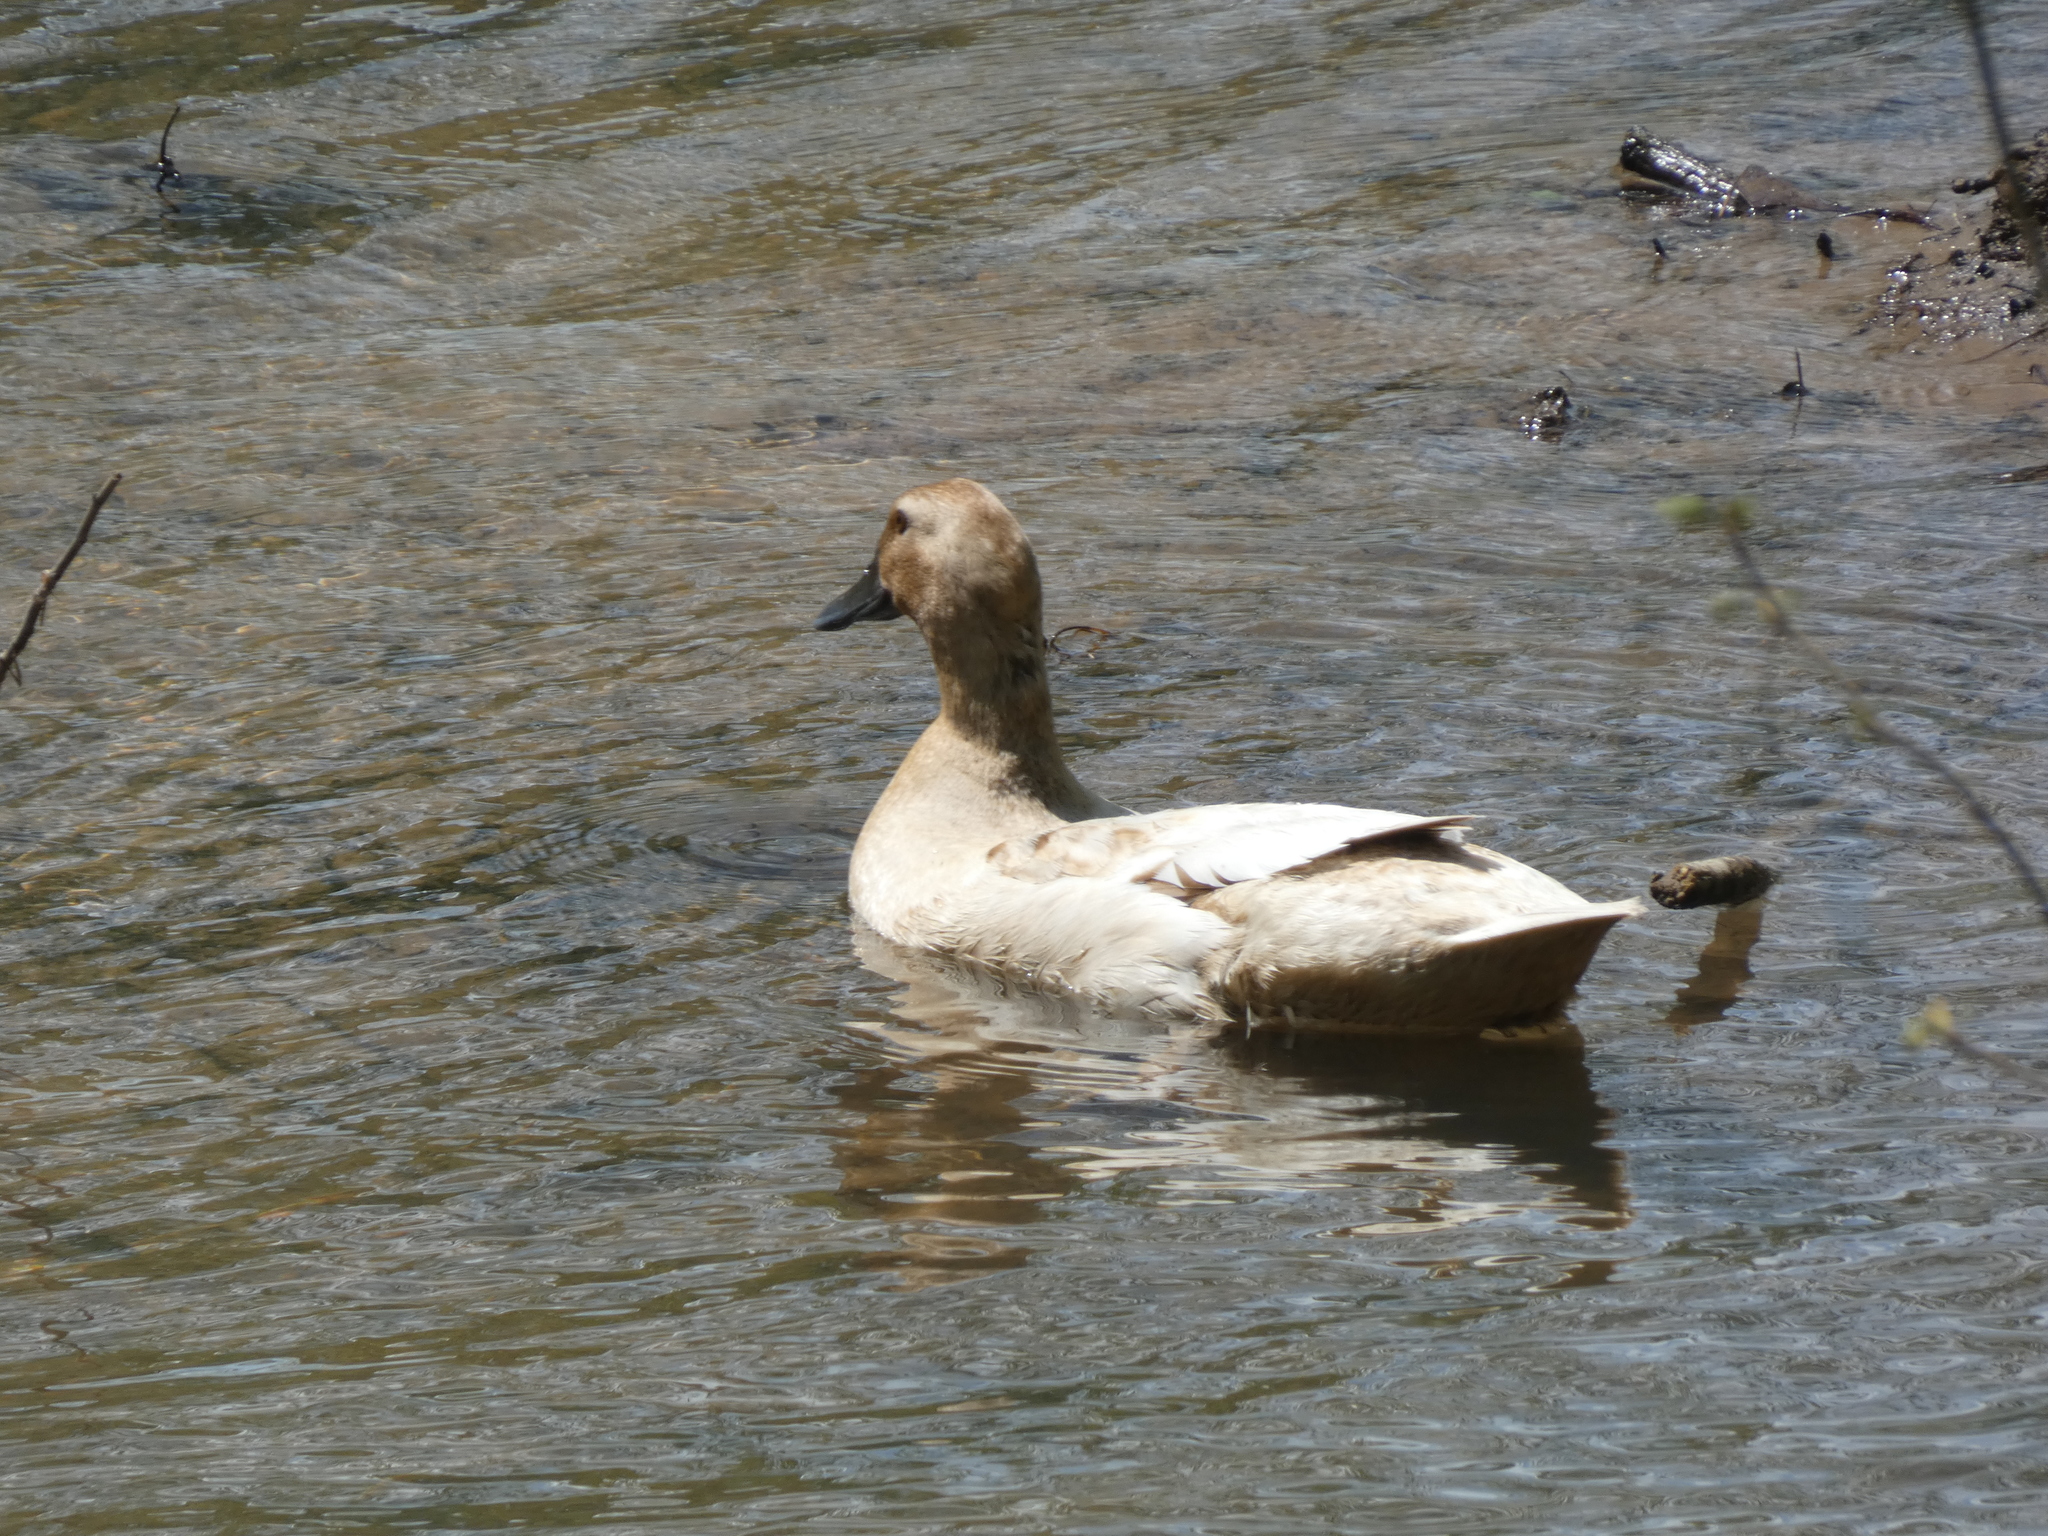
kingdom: Animalia
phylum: Chordata
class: Aves
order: Anseriformes
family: Anatidae
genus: Anas
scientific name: Anas platyrhynchos
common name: Mallard
